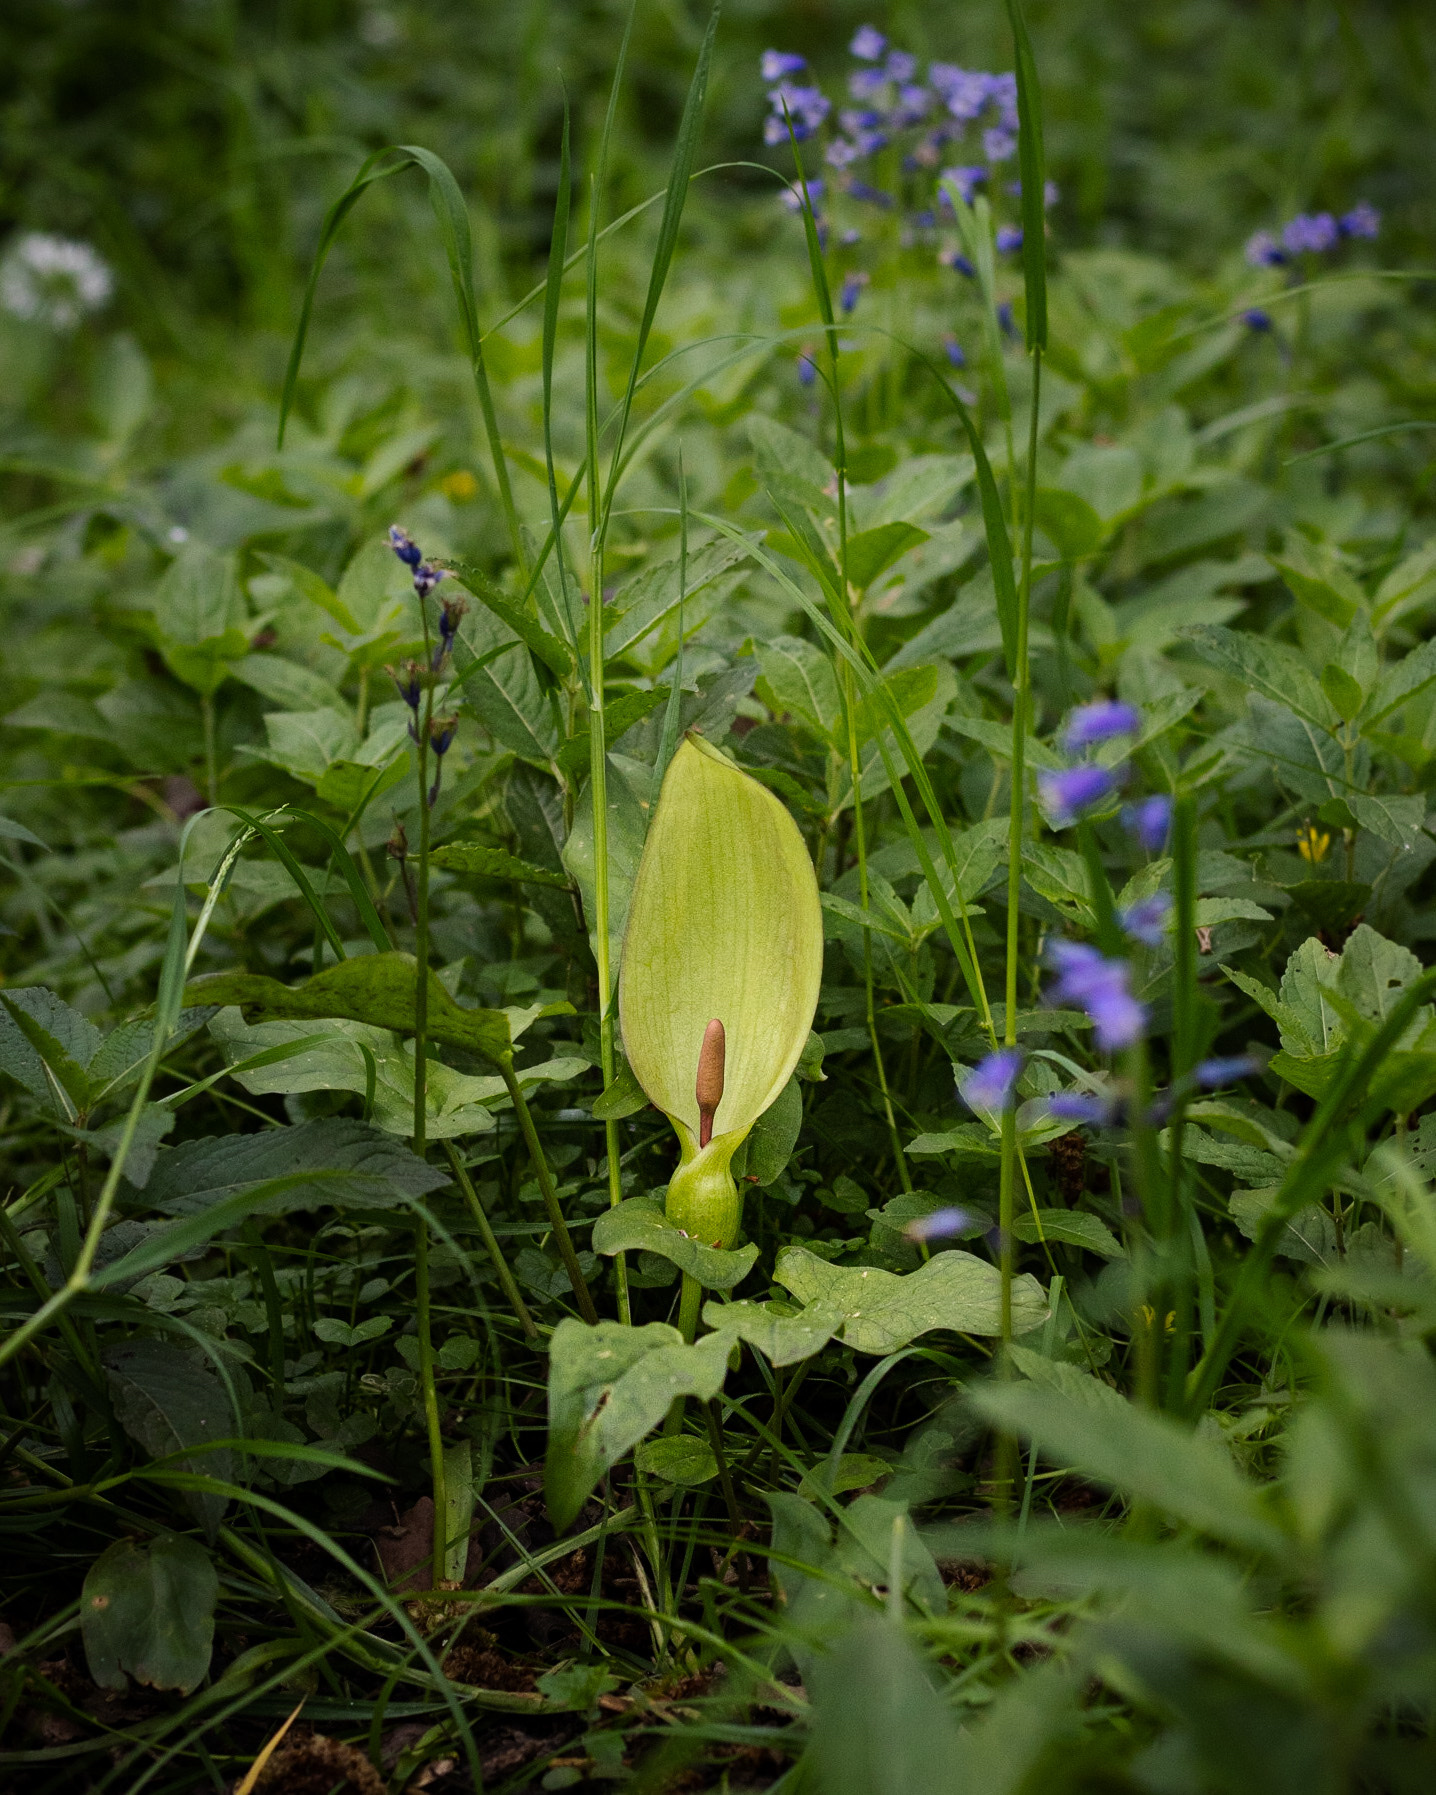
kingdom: Plantae
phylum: Tracheophyta
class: Liliopsida
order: Alismatales
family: Araceae
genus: Arum
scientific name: Arum maculatum
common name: Lords-and-ladies
